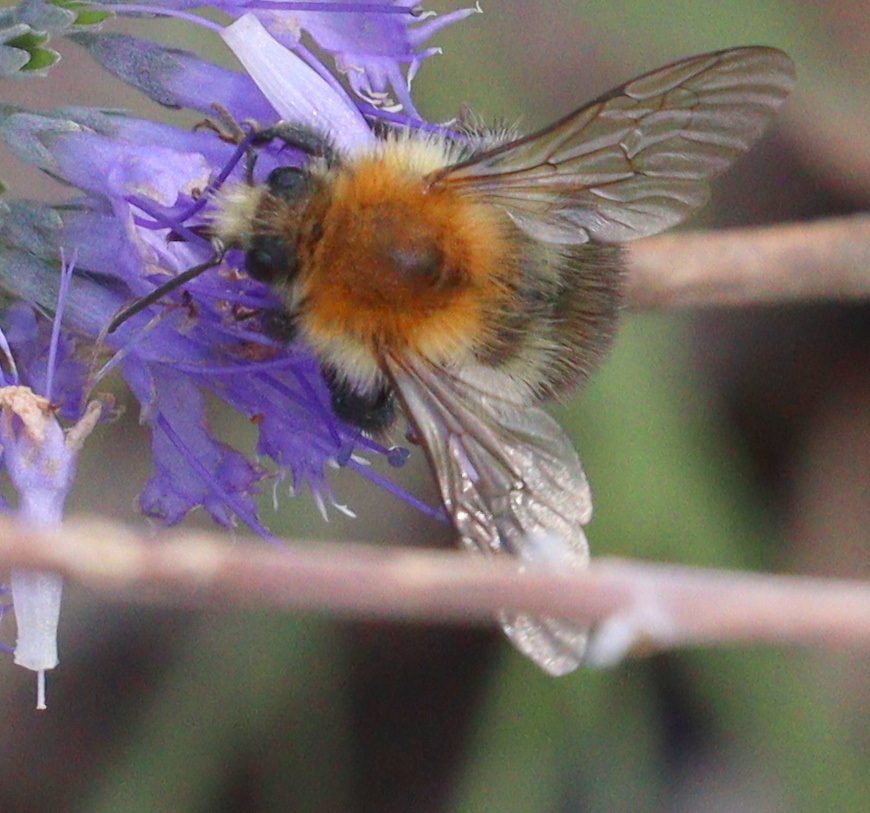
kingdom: Animalia
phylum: Arthropoda
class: Insecta
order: Hymenoptera
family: Apidae
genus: Bombus
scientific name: Bombus pascuorum
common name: Common carder bee
